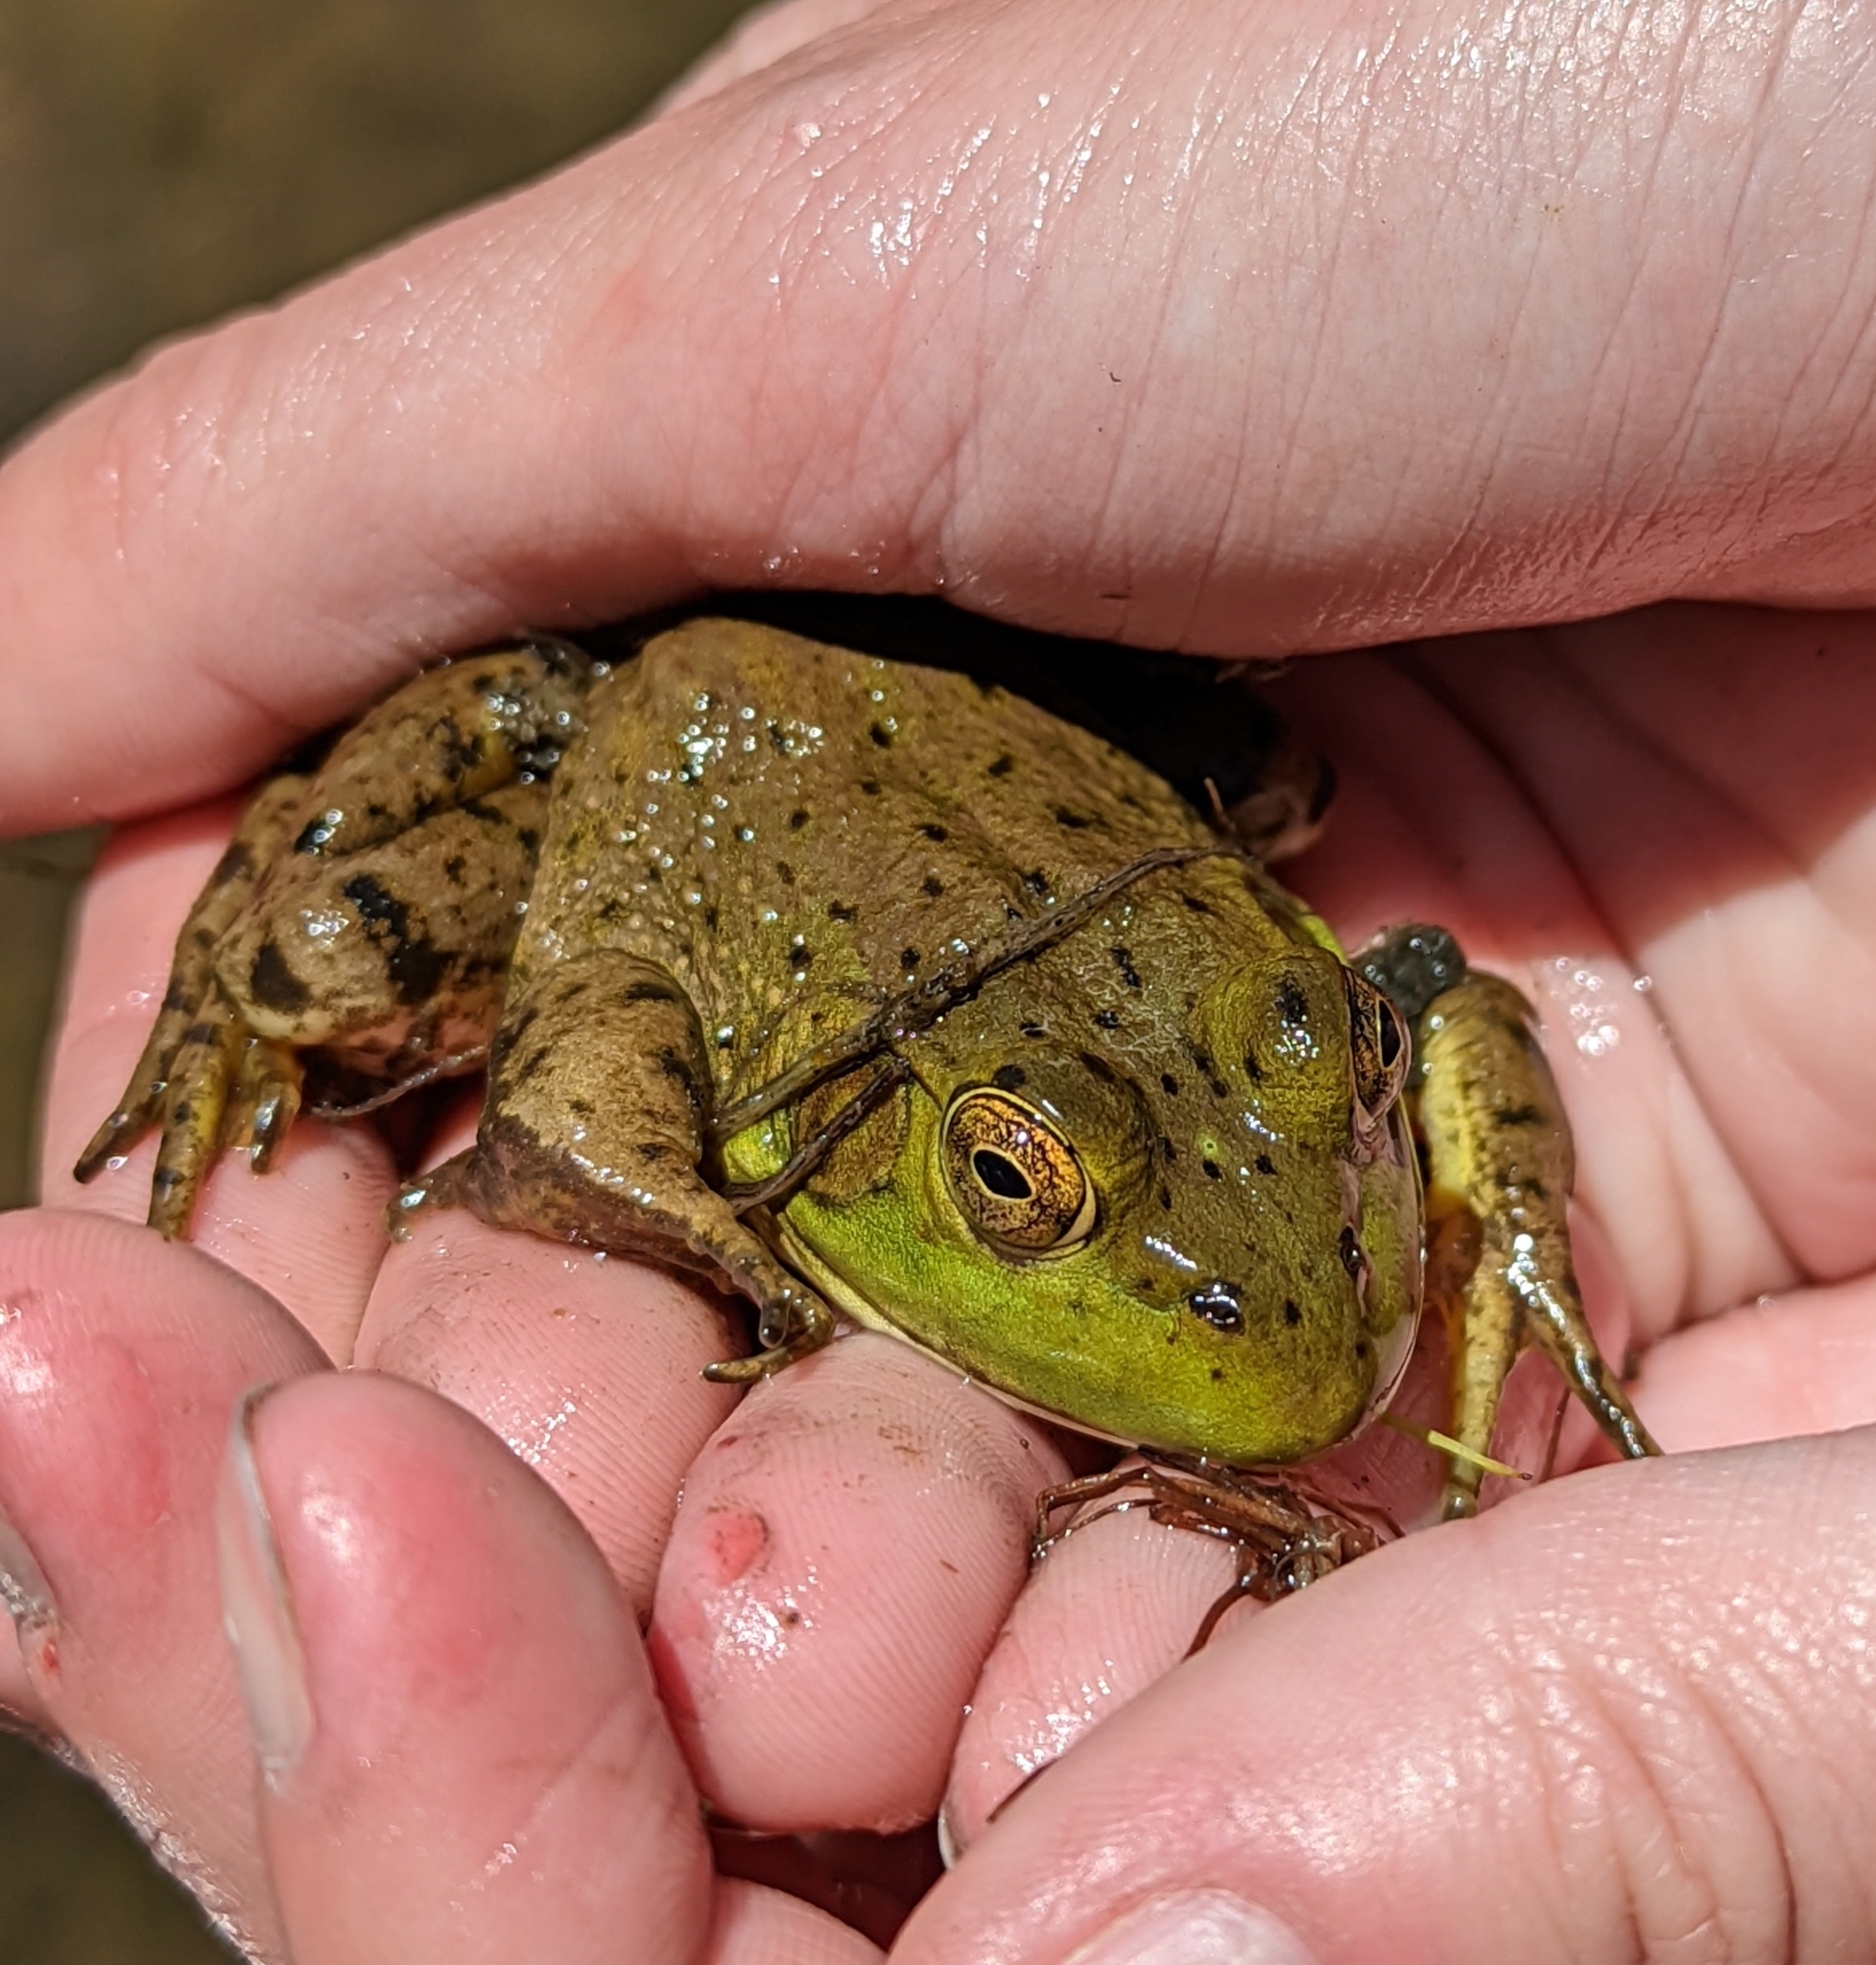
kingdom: Animalia
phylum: Chordata
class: Amphibia
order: Anura
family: Ranidae
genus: Lithobates
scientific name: Lithobates catesbeianus
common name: American bullfrog
